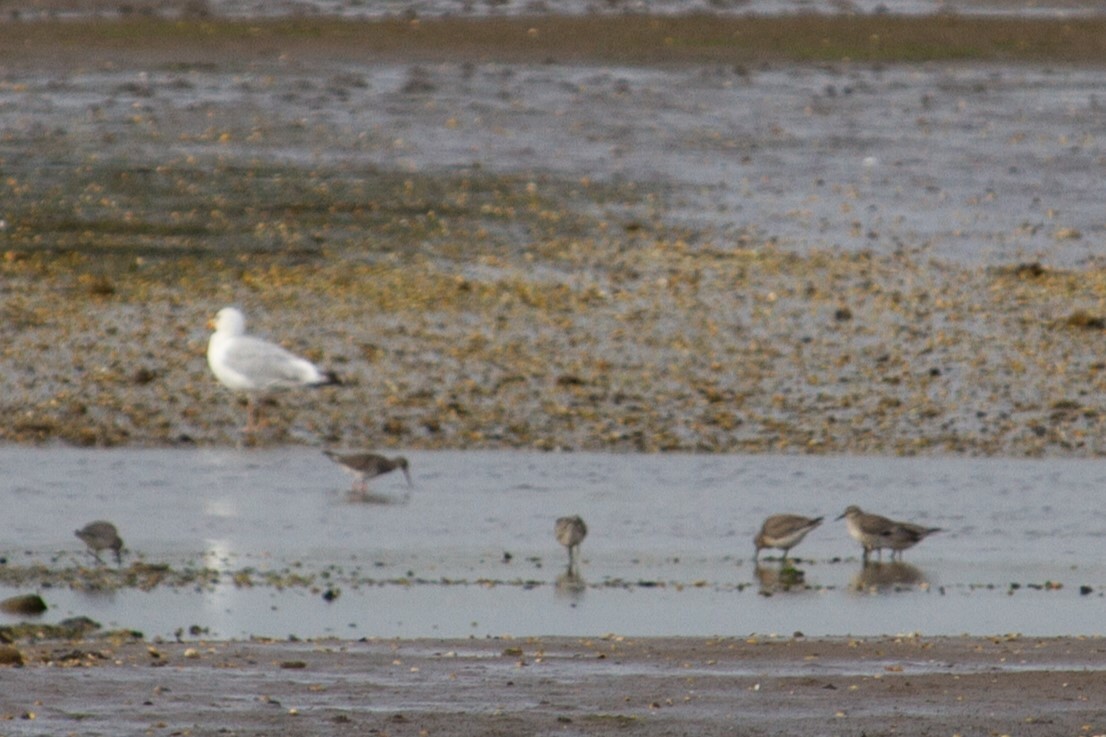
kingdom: Animalia
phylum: Chordata
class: Aves
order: Charadriiformes
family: Scolopacidae
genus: Calidris
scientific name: Calidris canutus
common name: Red knot
